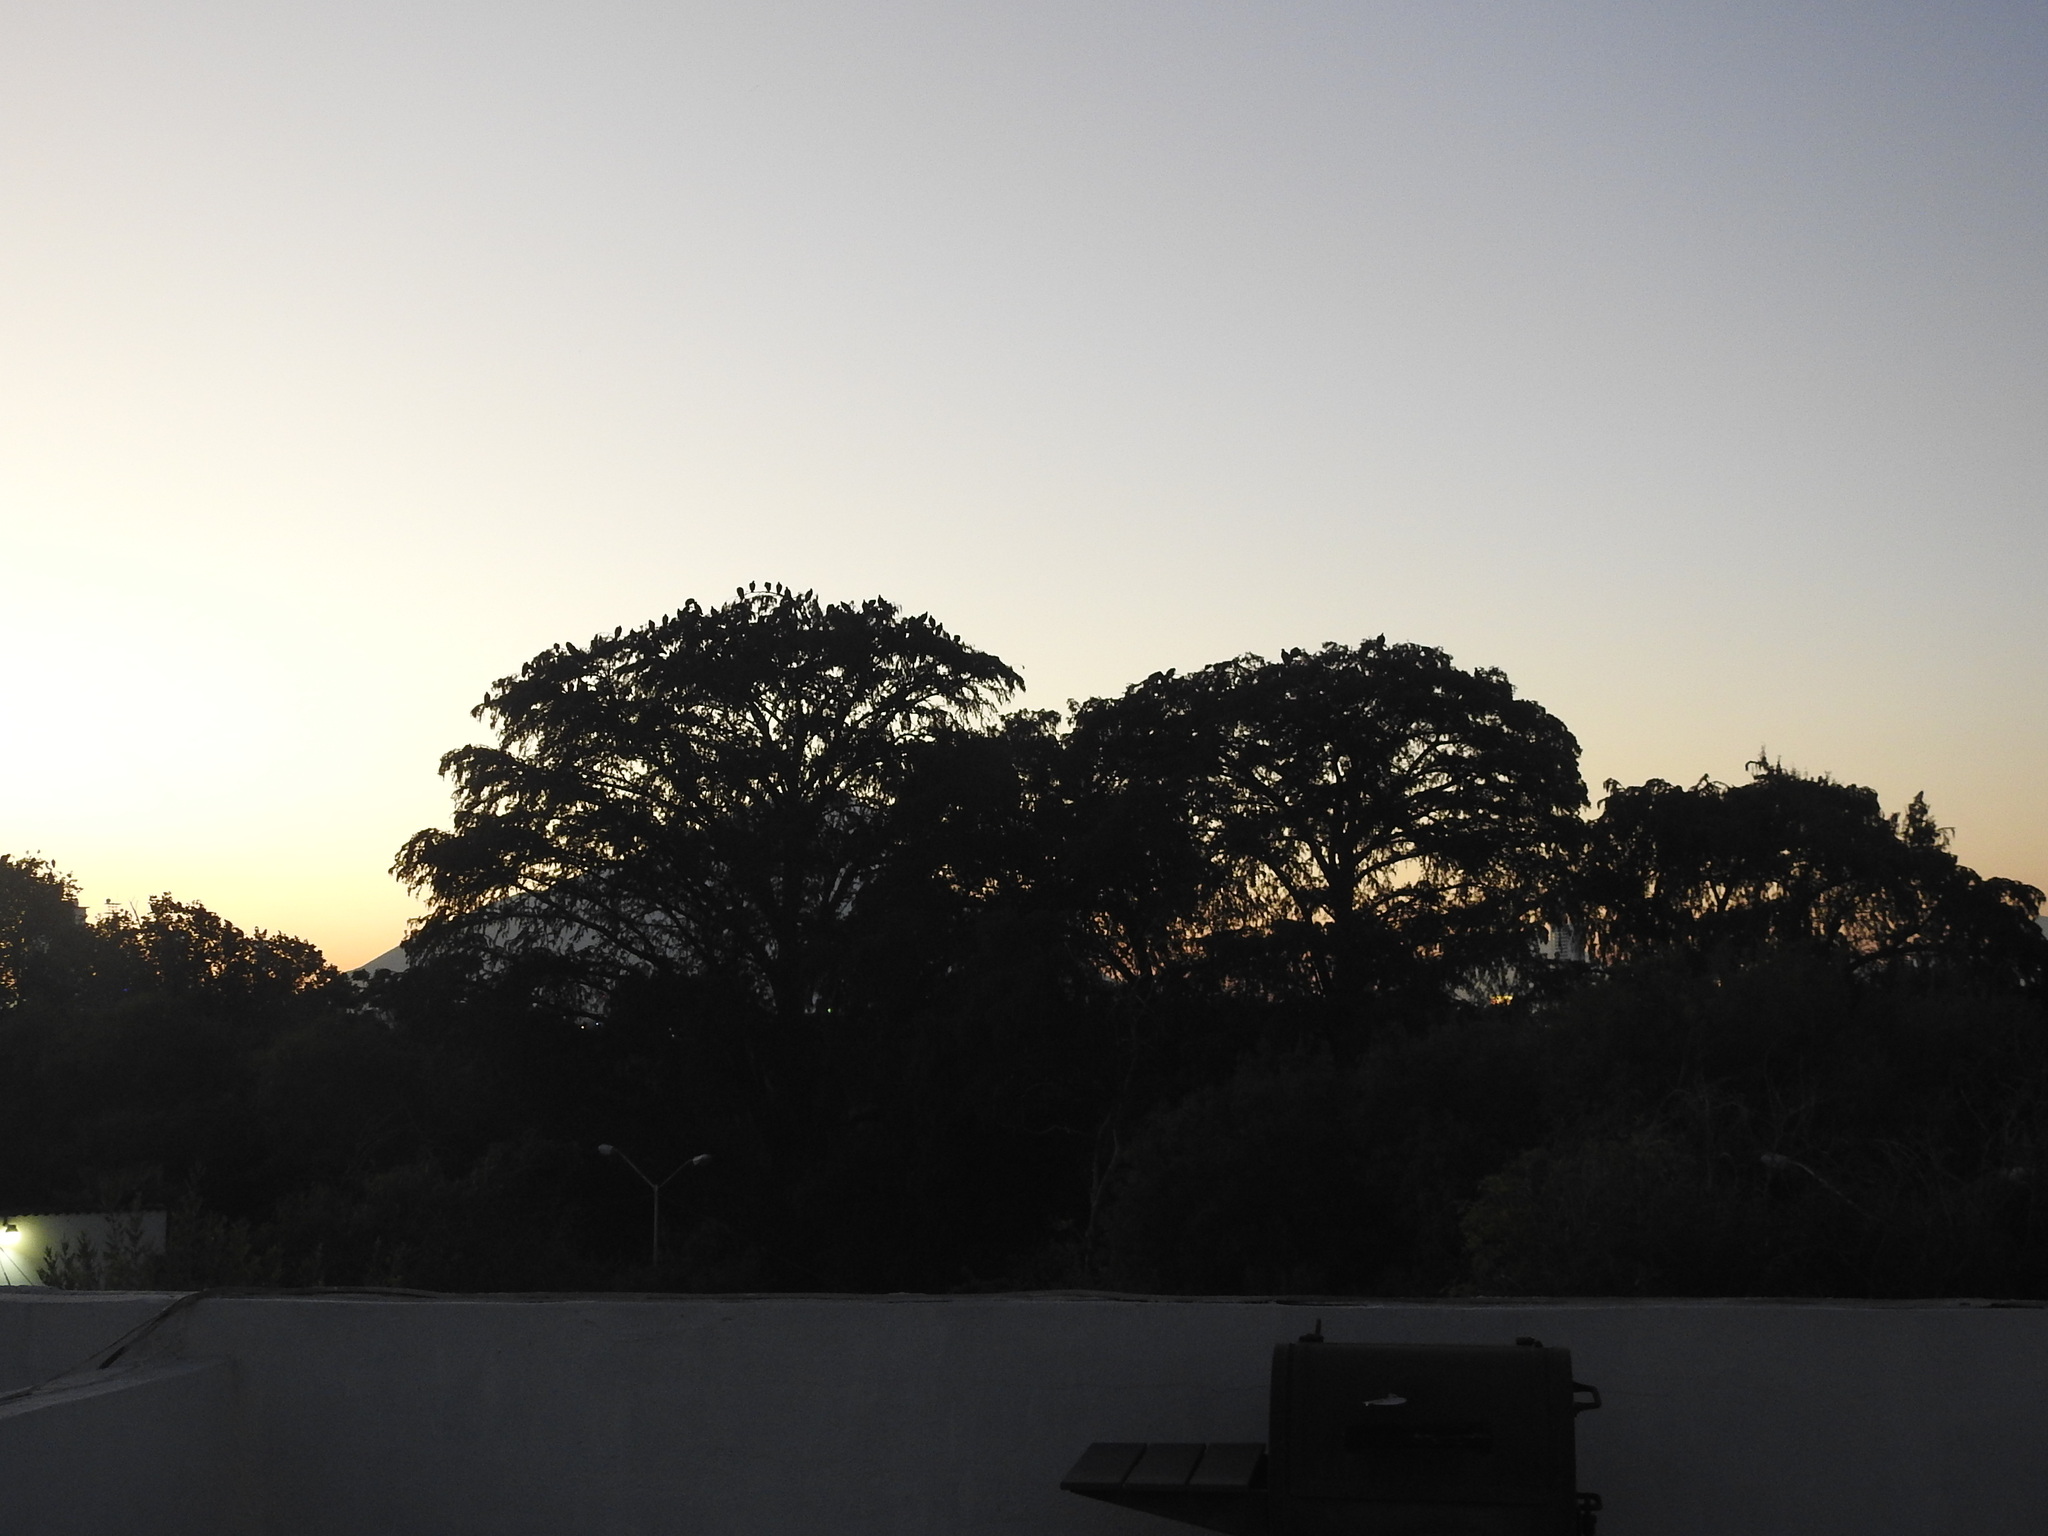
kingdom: Animalia
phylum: Chordata
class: Aves
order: Accipitriformes
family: Cathartidae
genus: Coragyps
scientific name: Coragyps atratus
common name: Black vulture
